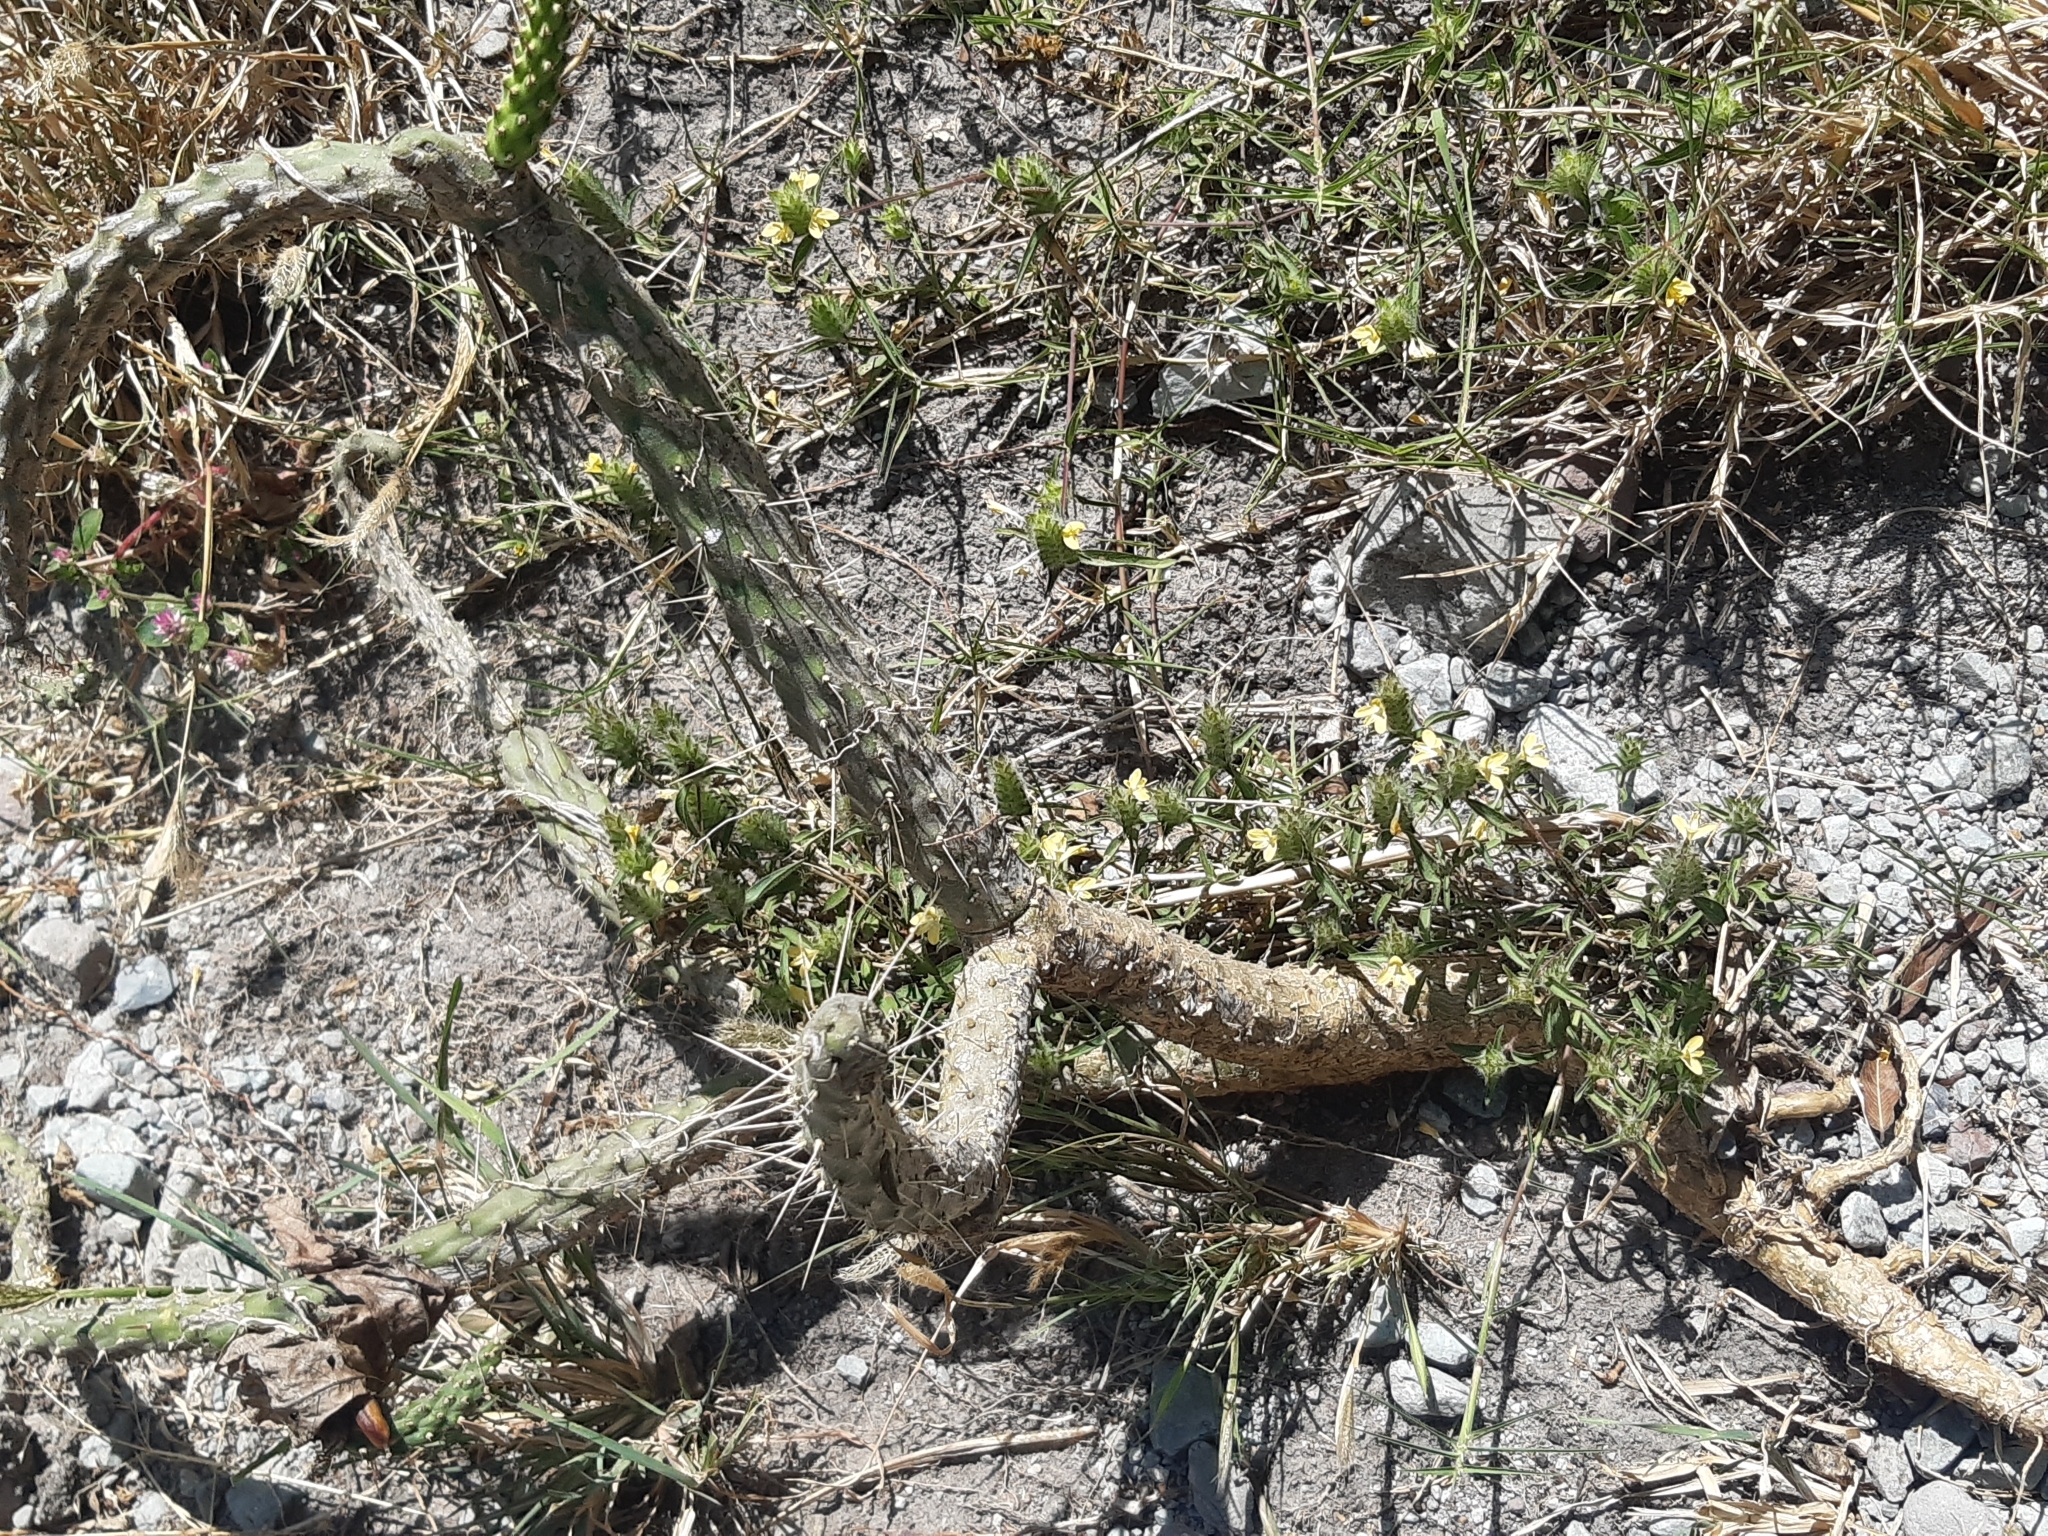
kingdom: Plantae
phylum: Tracheophyta
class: Magnoliopsida
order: Caryophyllales
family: Cactaceae
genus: Opuntia
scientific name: Opuntia pubescens
